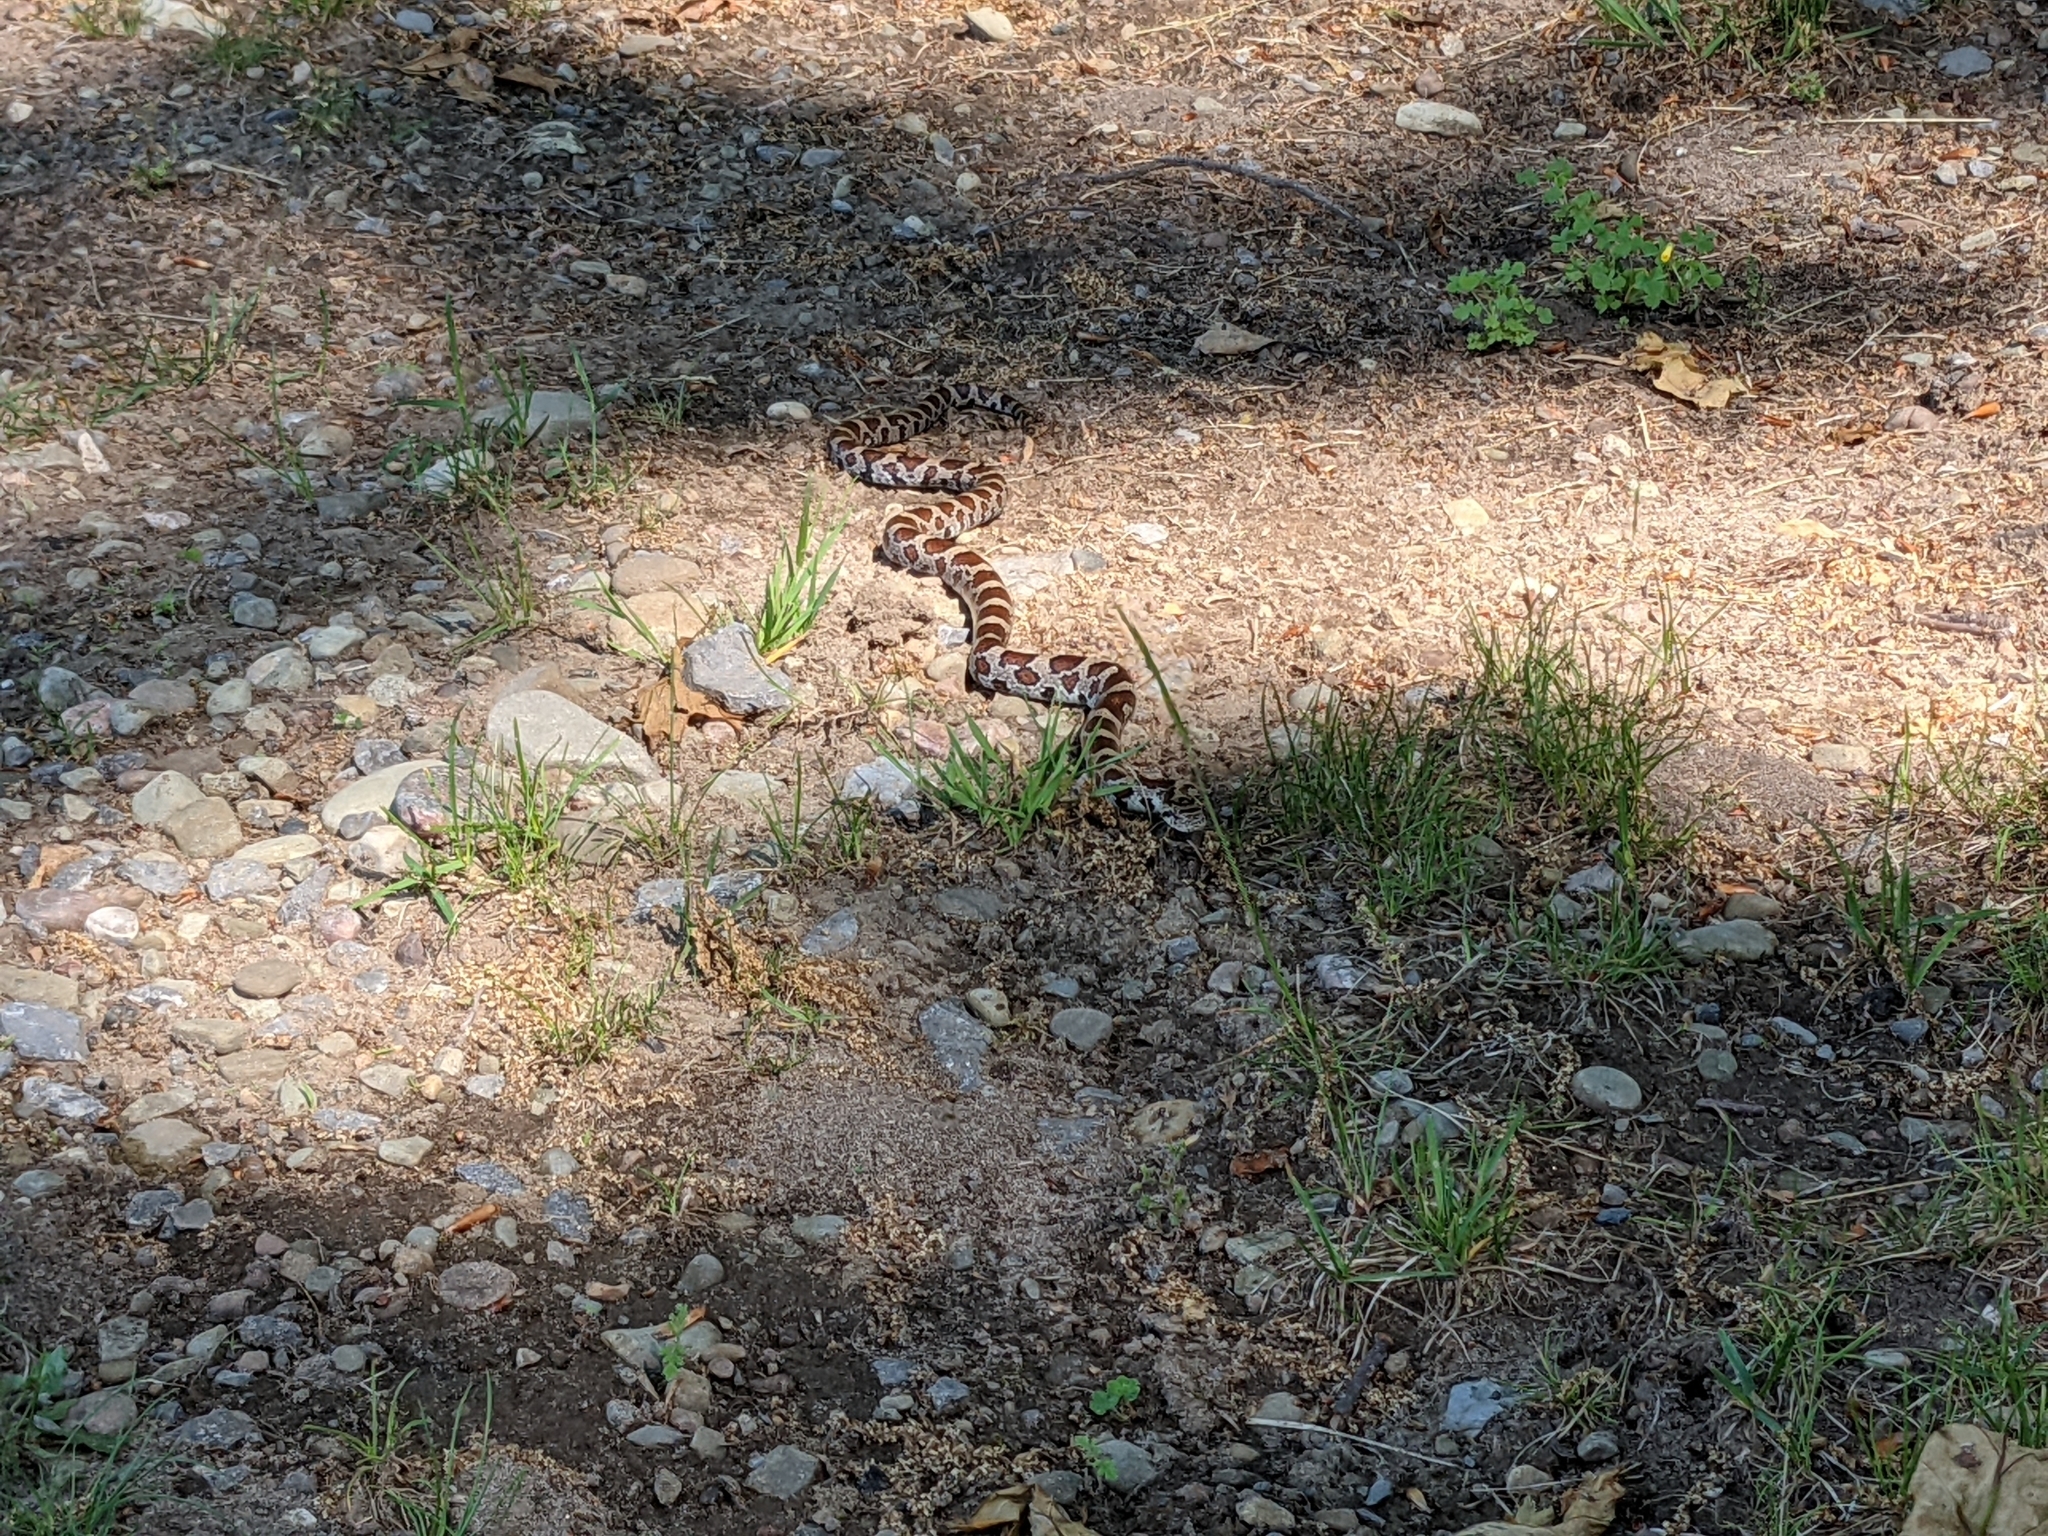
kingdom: Animalia
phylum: Chordata
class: Squamata
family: Colubridae
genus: Lampropeltis
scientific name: Lampropeltis triangulum
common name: Eastern milksnake
